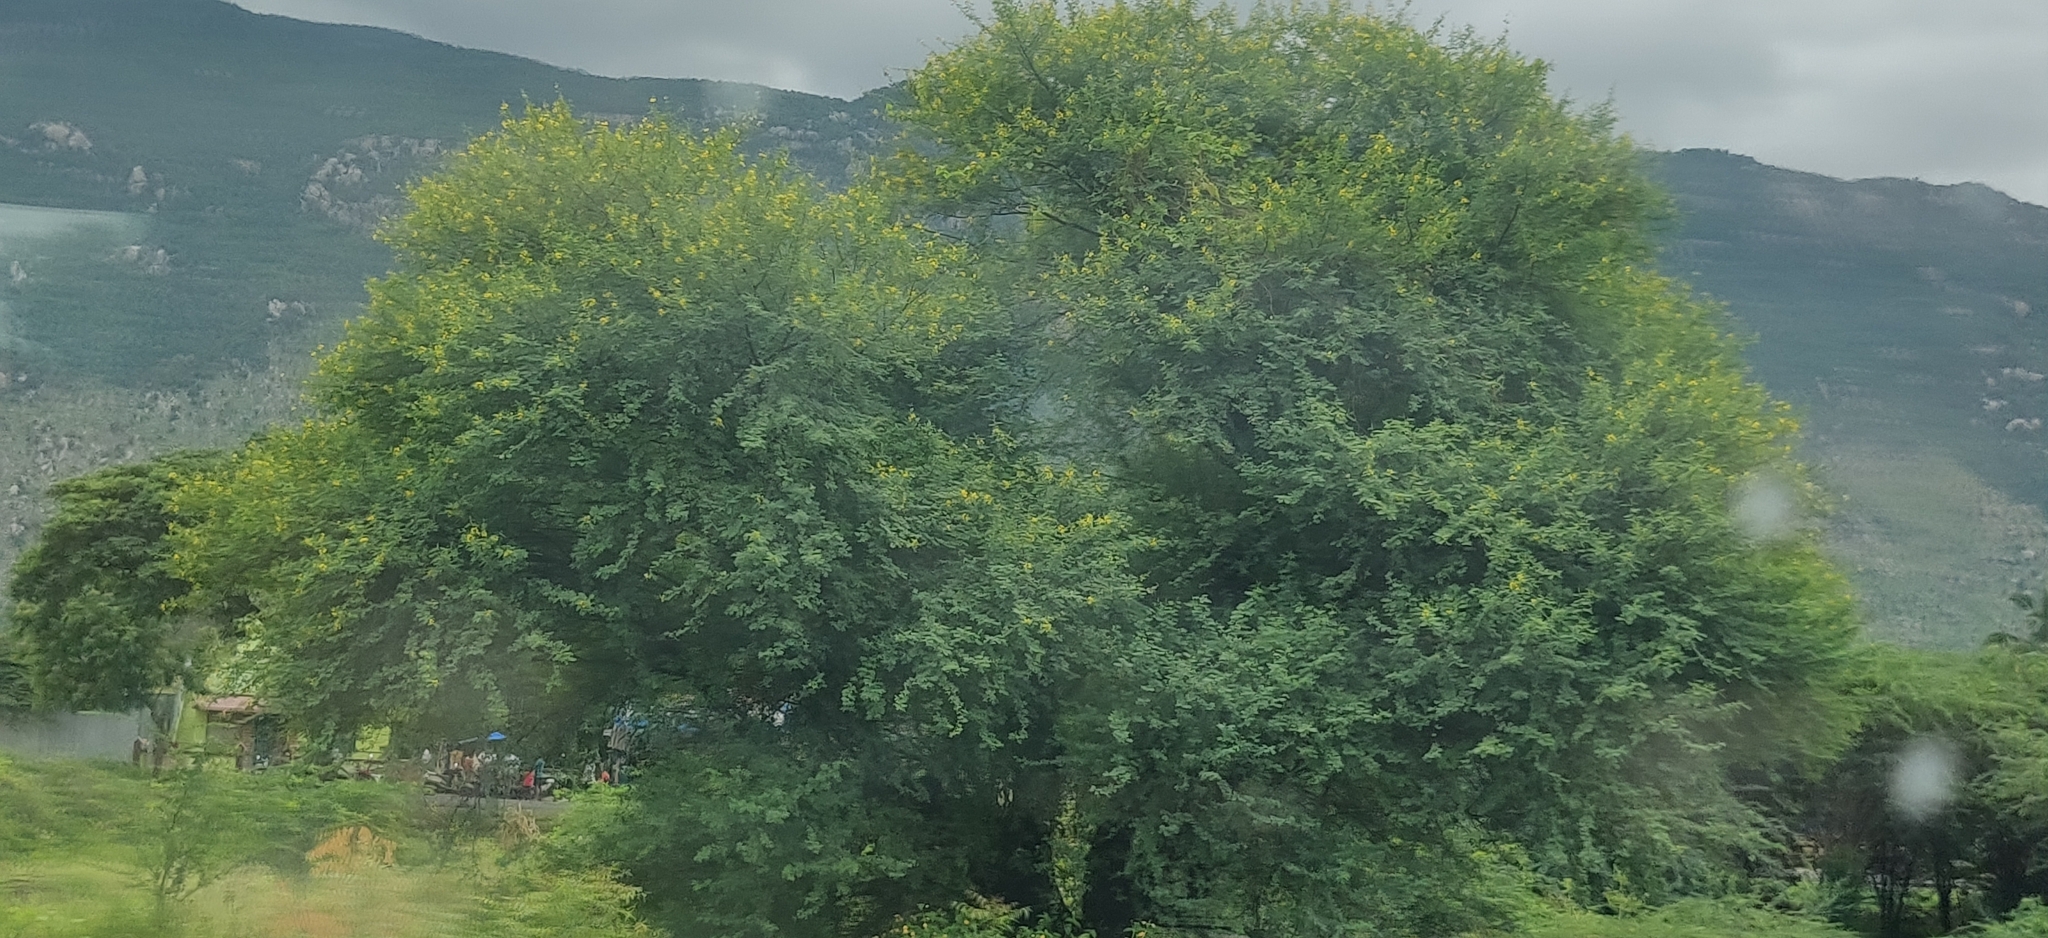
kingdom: Plantae
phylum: Tracheophyta
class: Magnoliopsida
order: Fabales
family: Fabaceae
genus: Vachellia
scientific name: Vachellia nilotica
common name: Arabic gumtree
